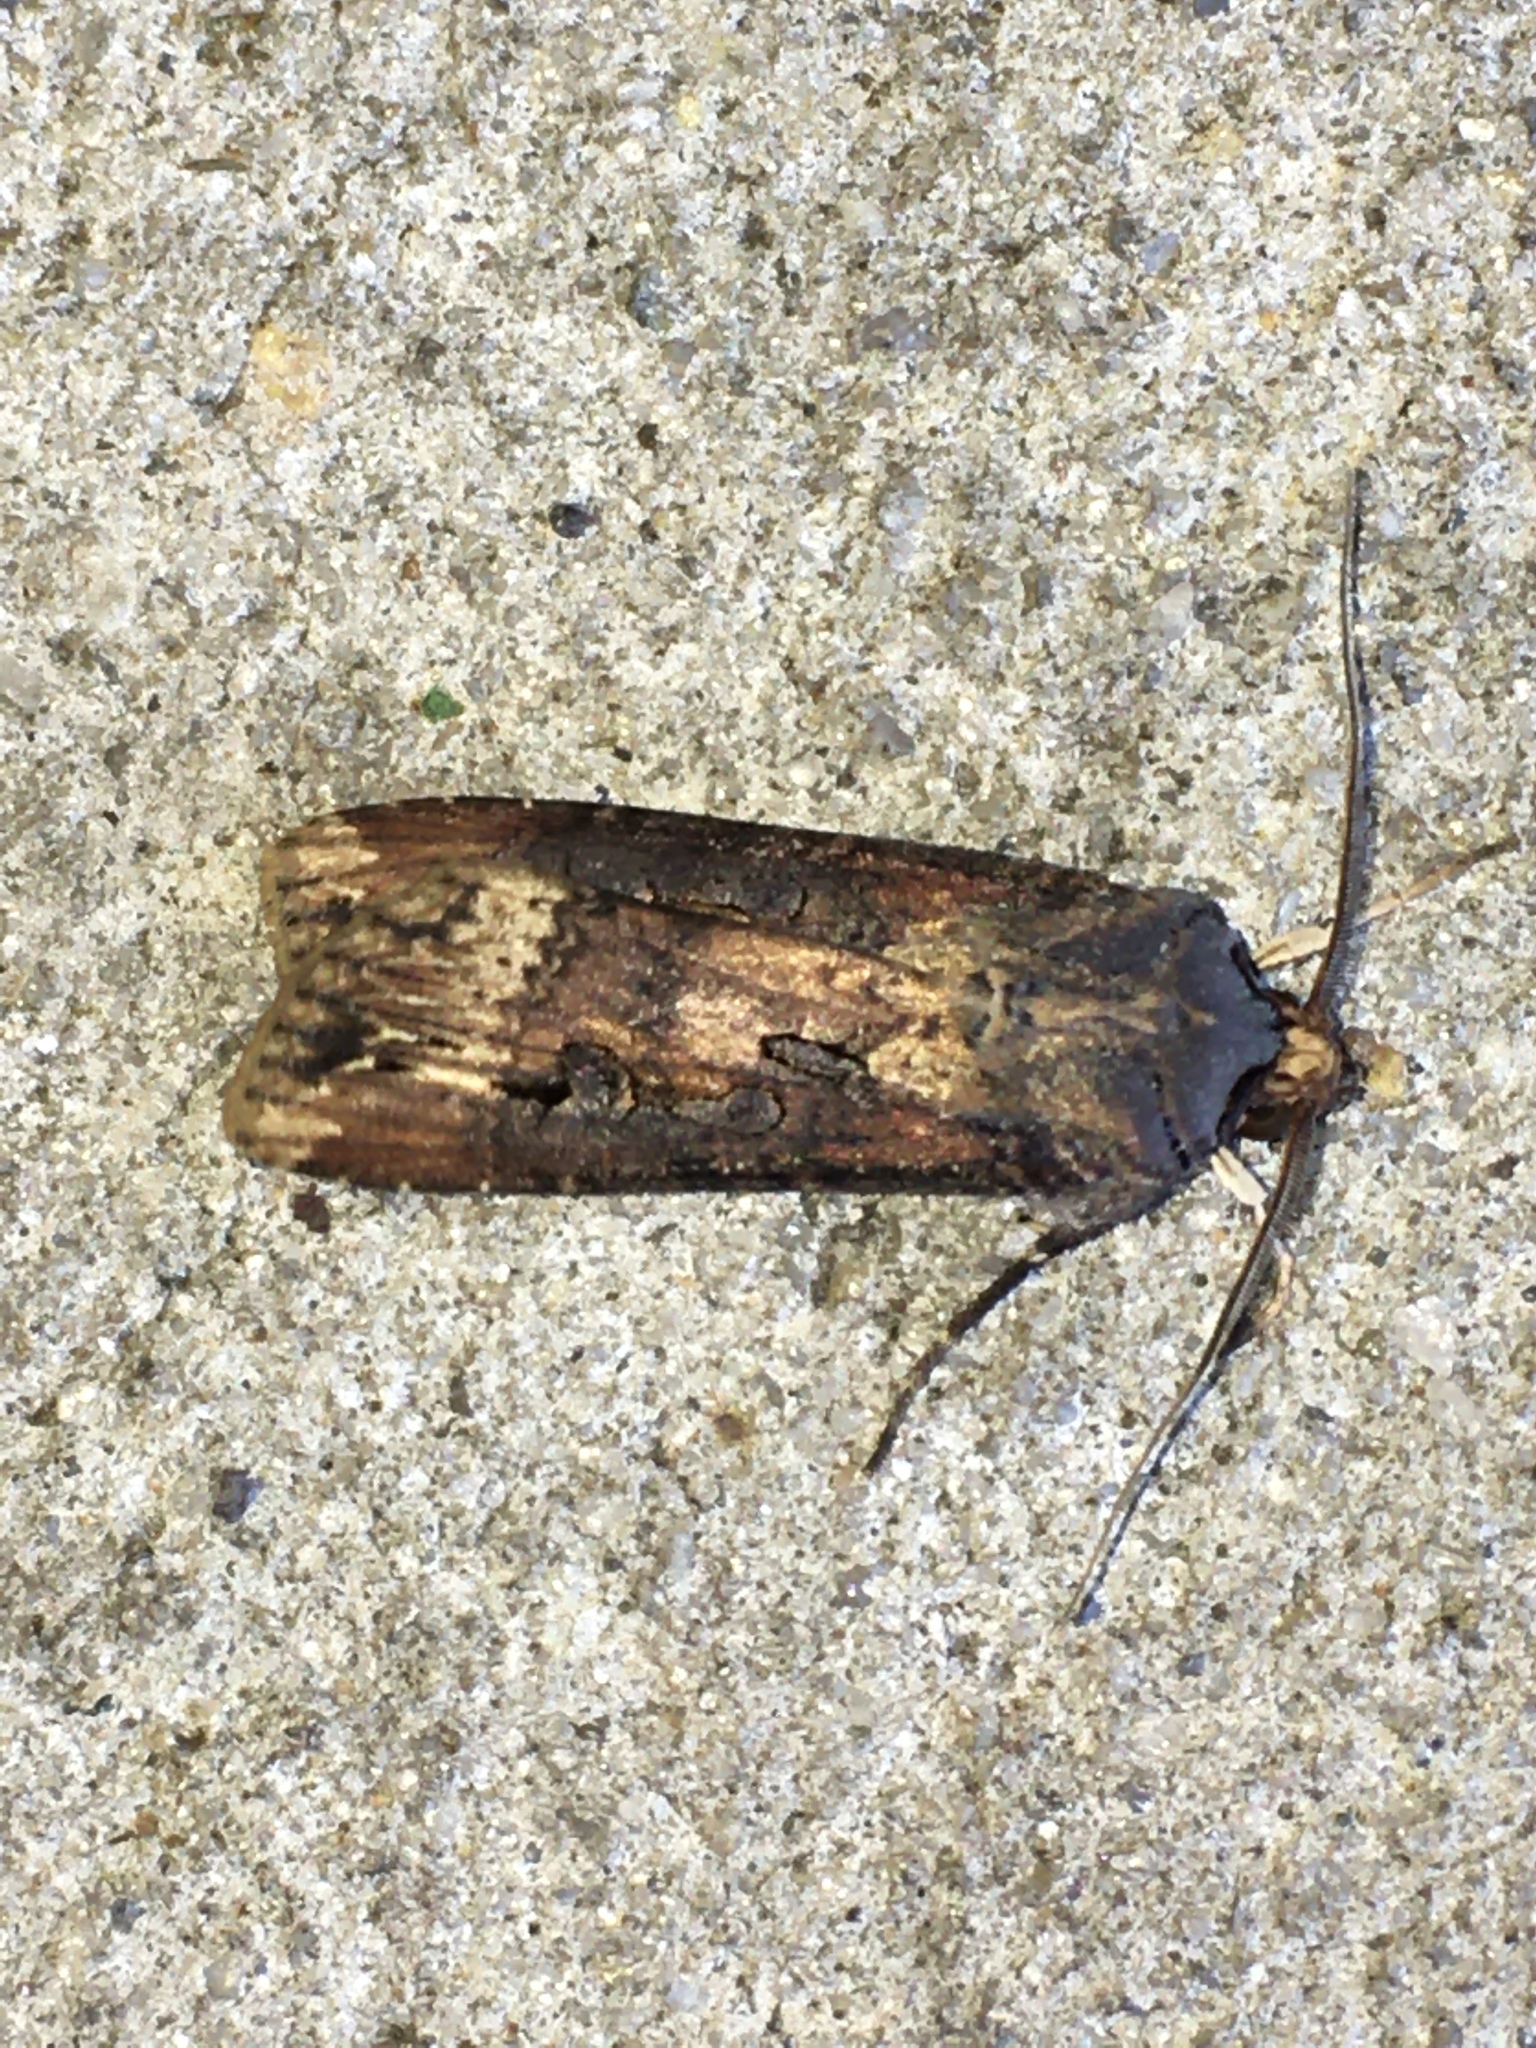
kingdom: Animalia
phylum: Arthropoda
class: Insecta
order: Lepidoptera
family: Noctuidae
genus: Agrotis
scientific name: Agrotis ipsilon
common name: Dark sword-grass
